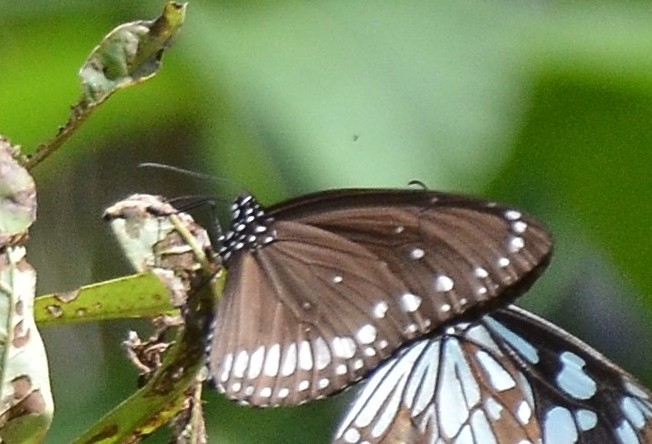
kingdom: Animalia
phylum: Arthropoda
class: Insecta
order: Lepidoptera
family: Nymphalidae
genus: Euploea
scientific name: Euploea core
